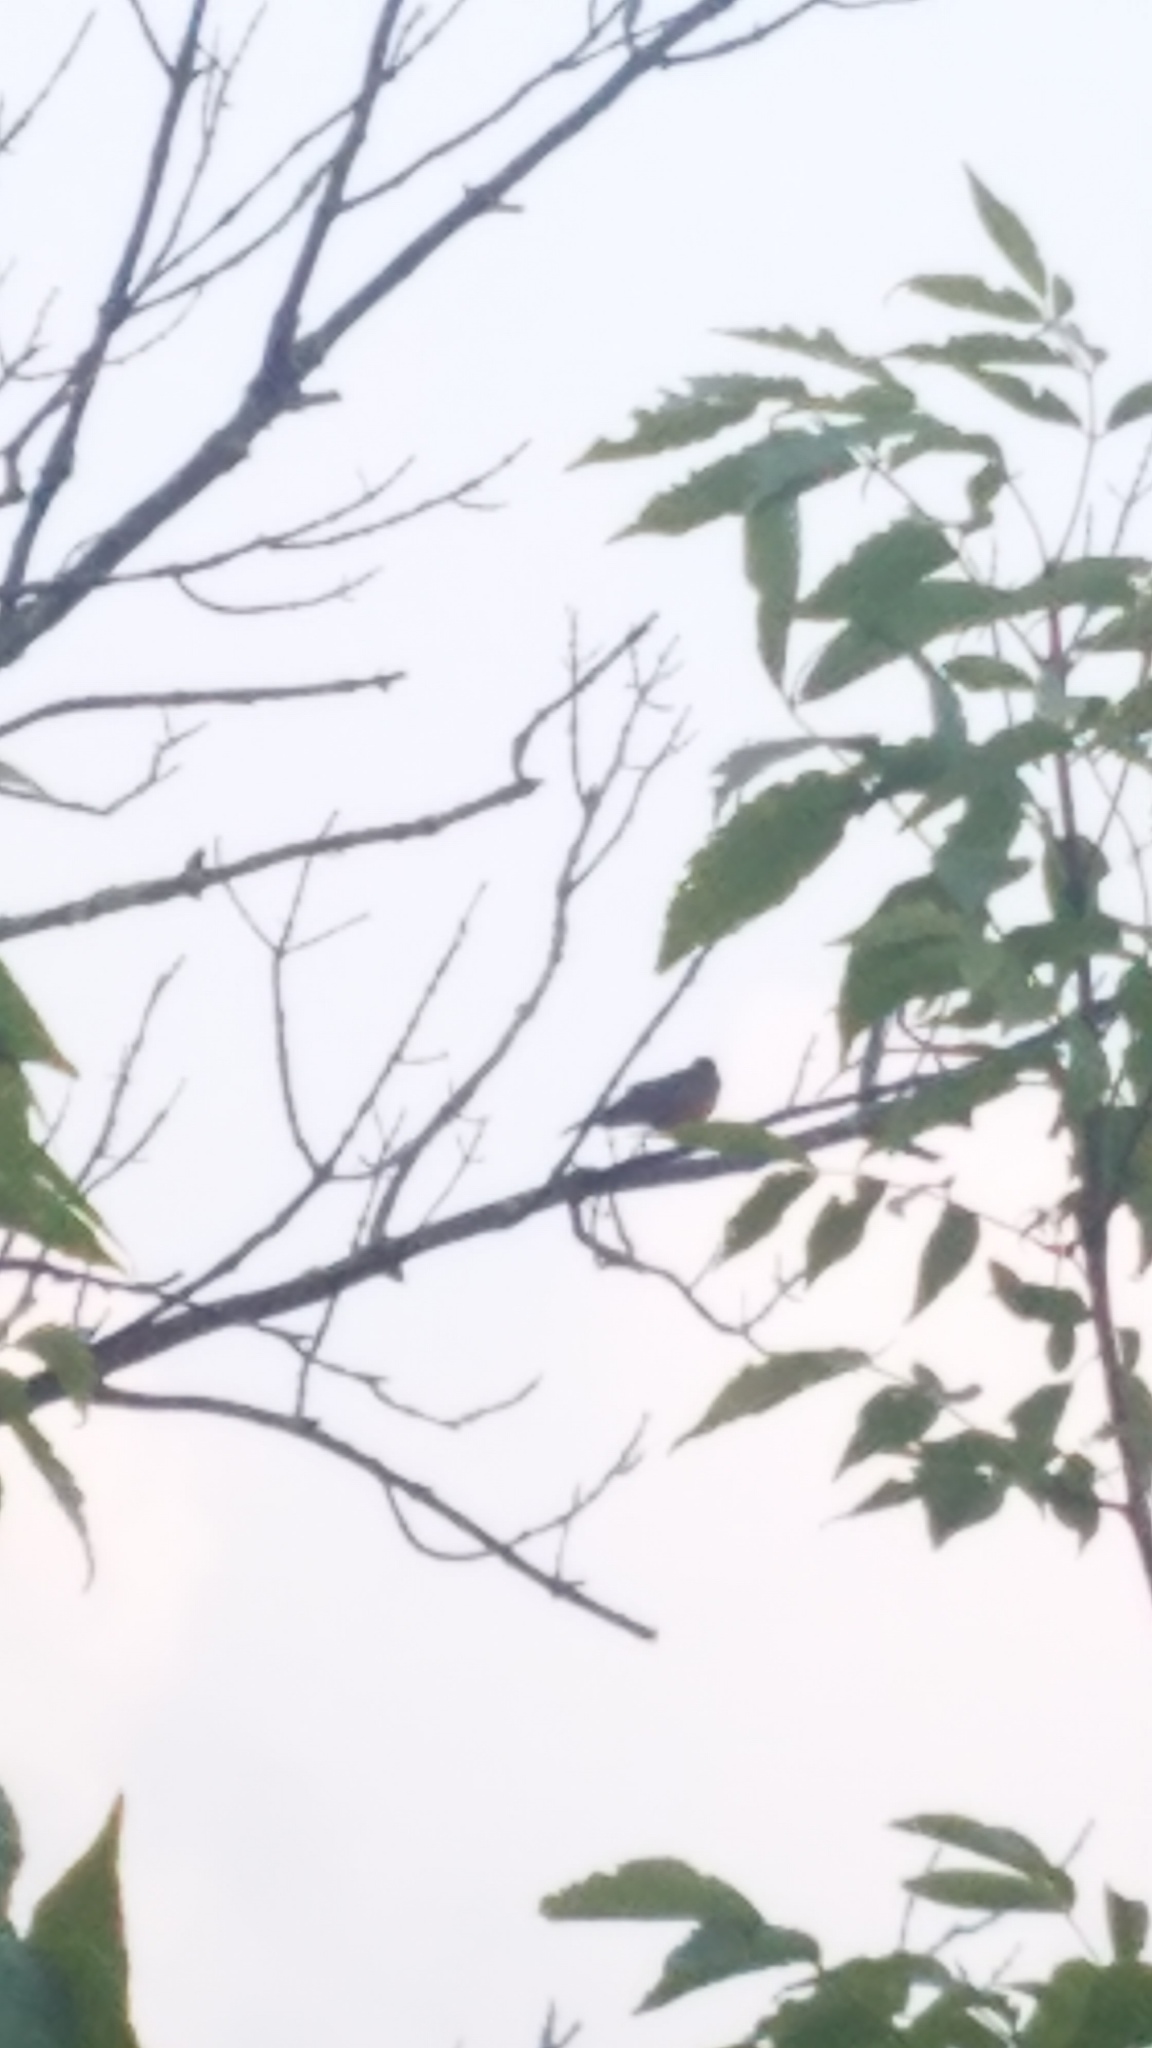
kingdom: Animalia
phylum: Chordata
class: Aves
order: Passeriformes
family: Turdidae
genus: Turdus
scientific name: Turdus migratorius
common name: American robin
